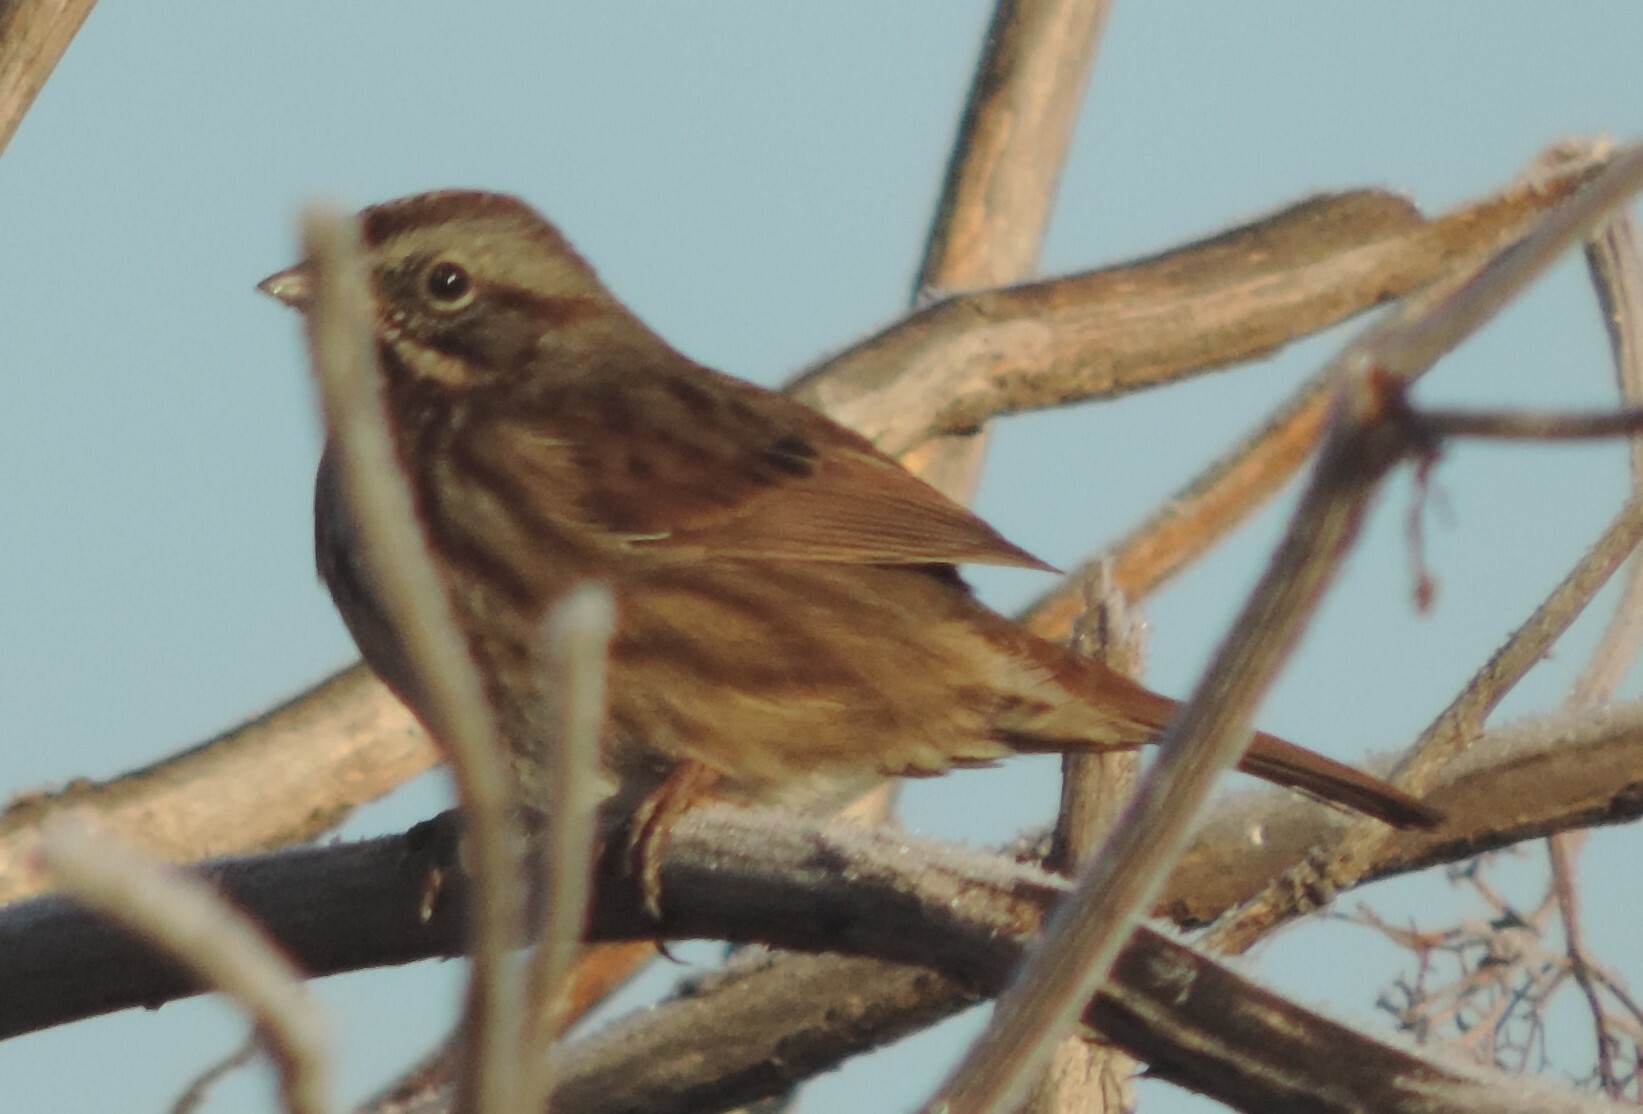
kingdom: Animalia
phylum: Chordata
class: Aves
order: Passeriformes
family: Passerellidae
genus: Melospiza
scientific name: Melospiza melodia
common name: Song sparrow
